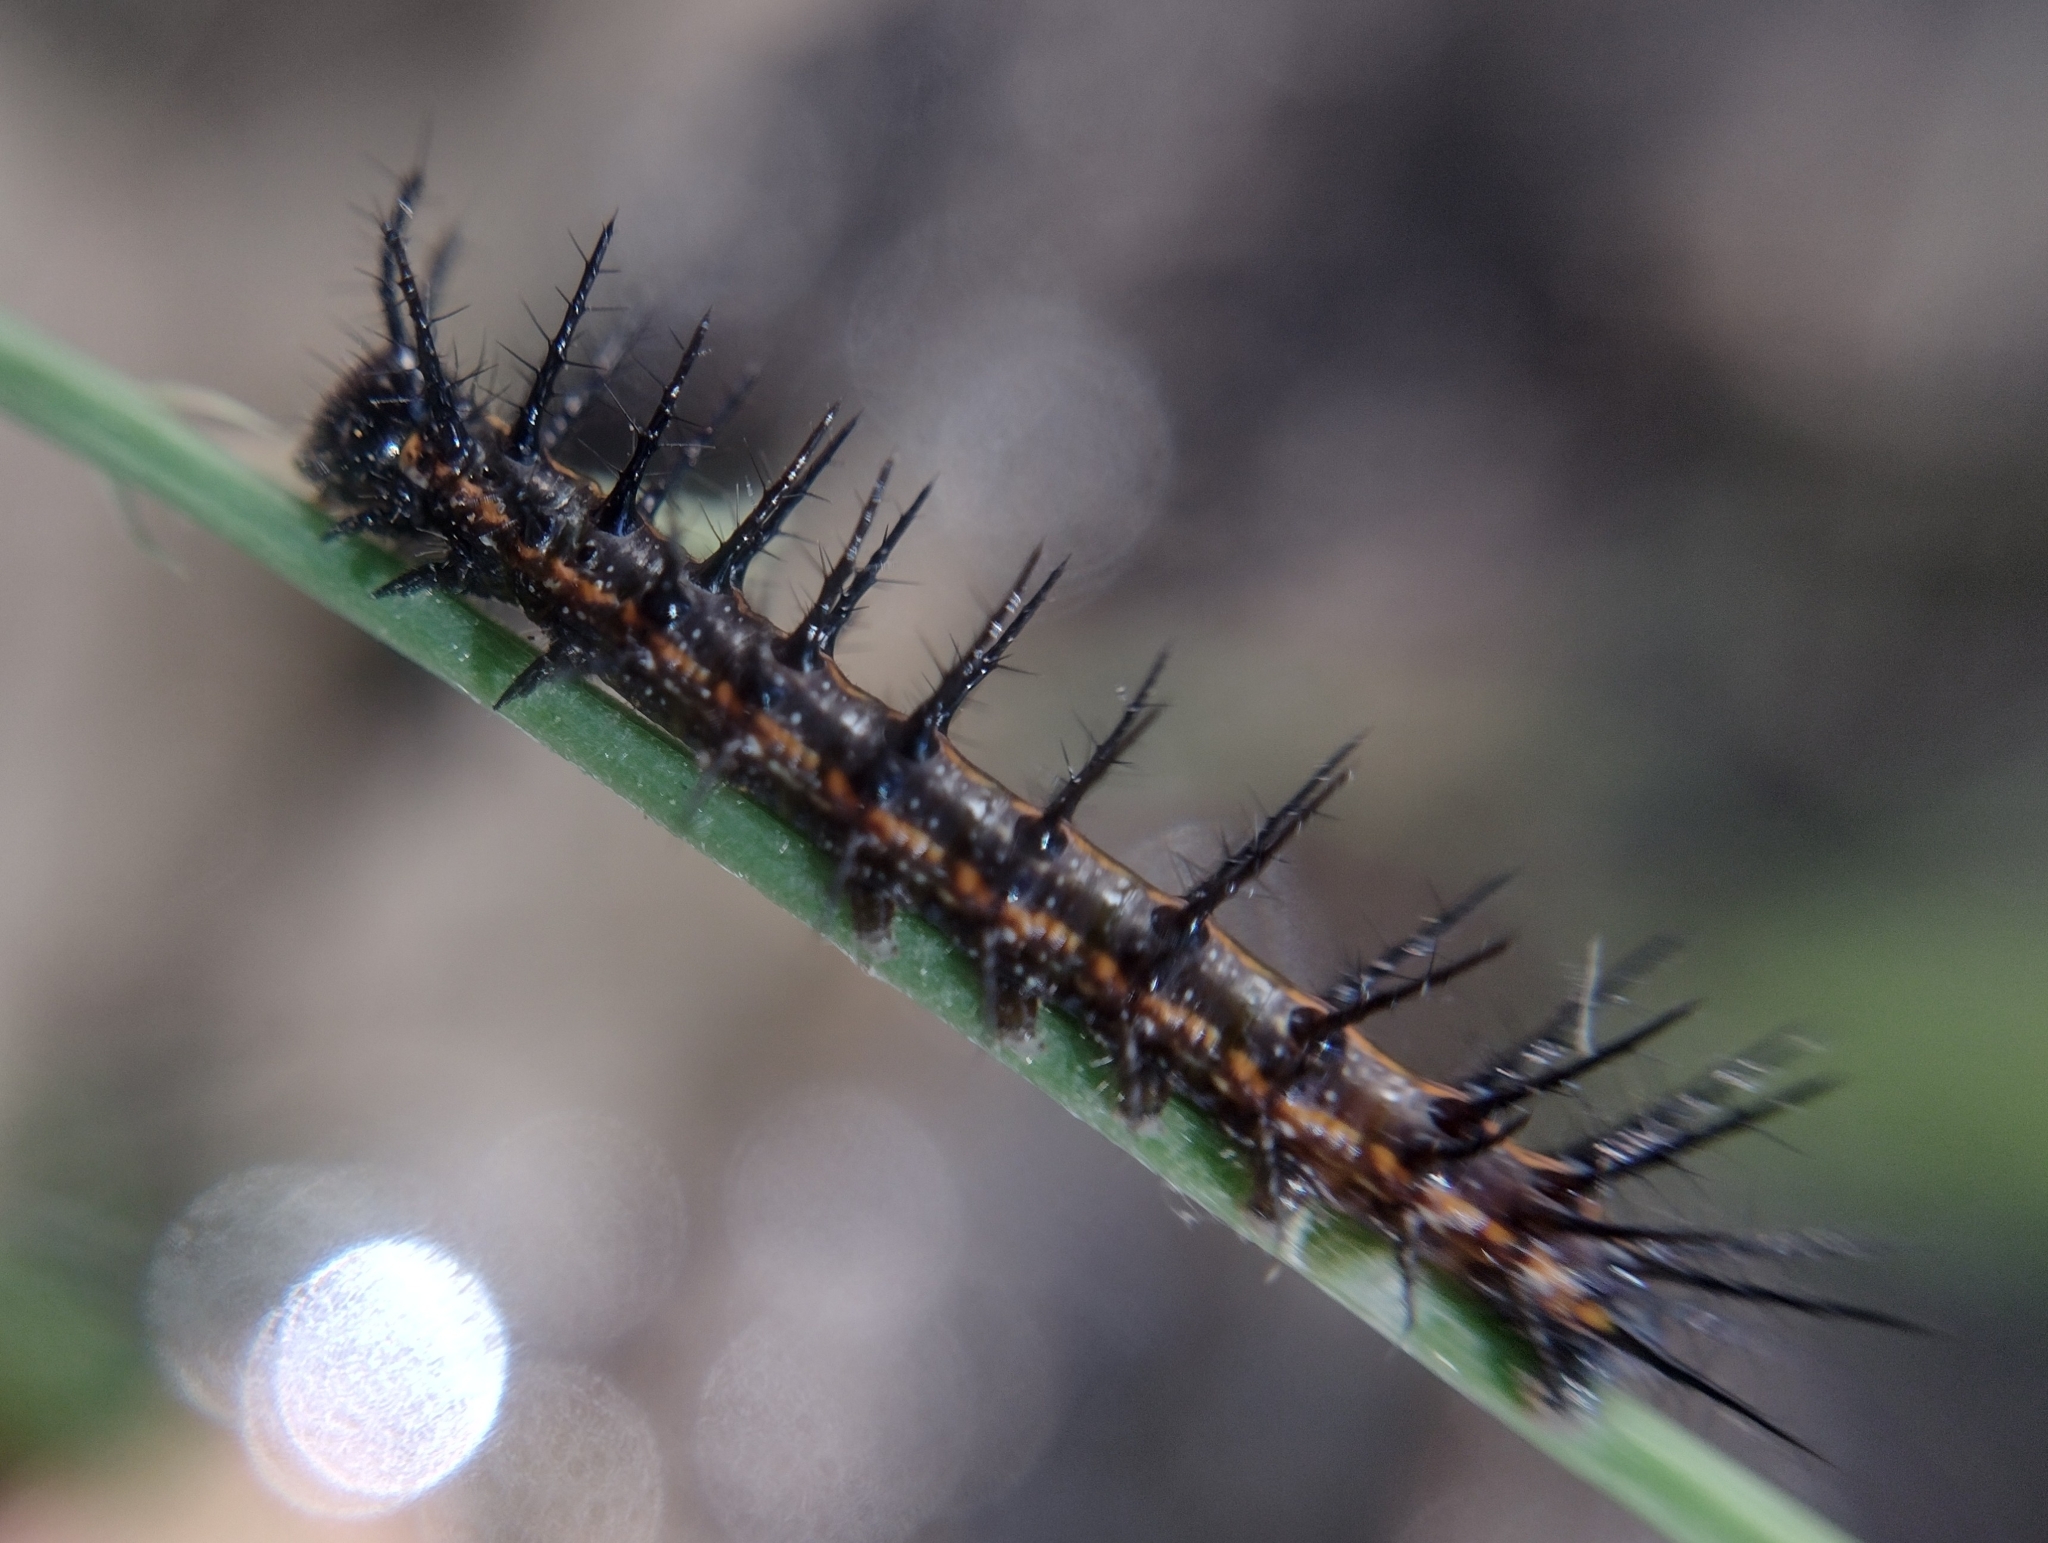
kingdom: Animalia
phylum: Arthropoda
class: Insecta
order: Lepidoptera
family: Nymphalidae
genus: Dione
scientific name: Dione vanillae
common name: Gulf fritillary
